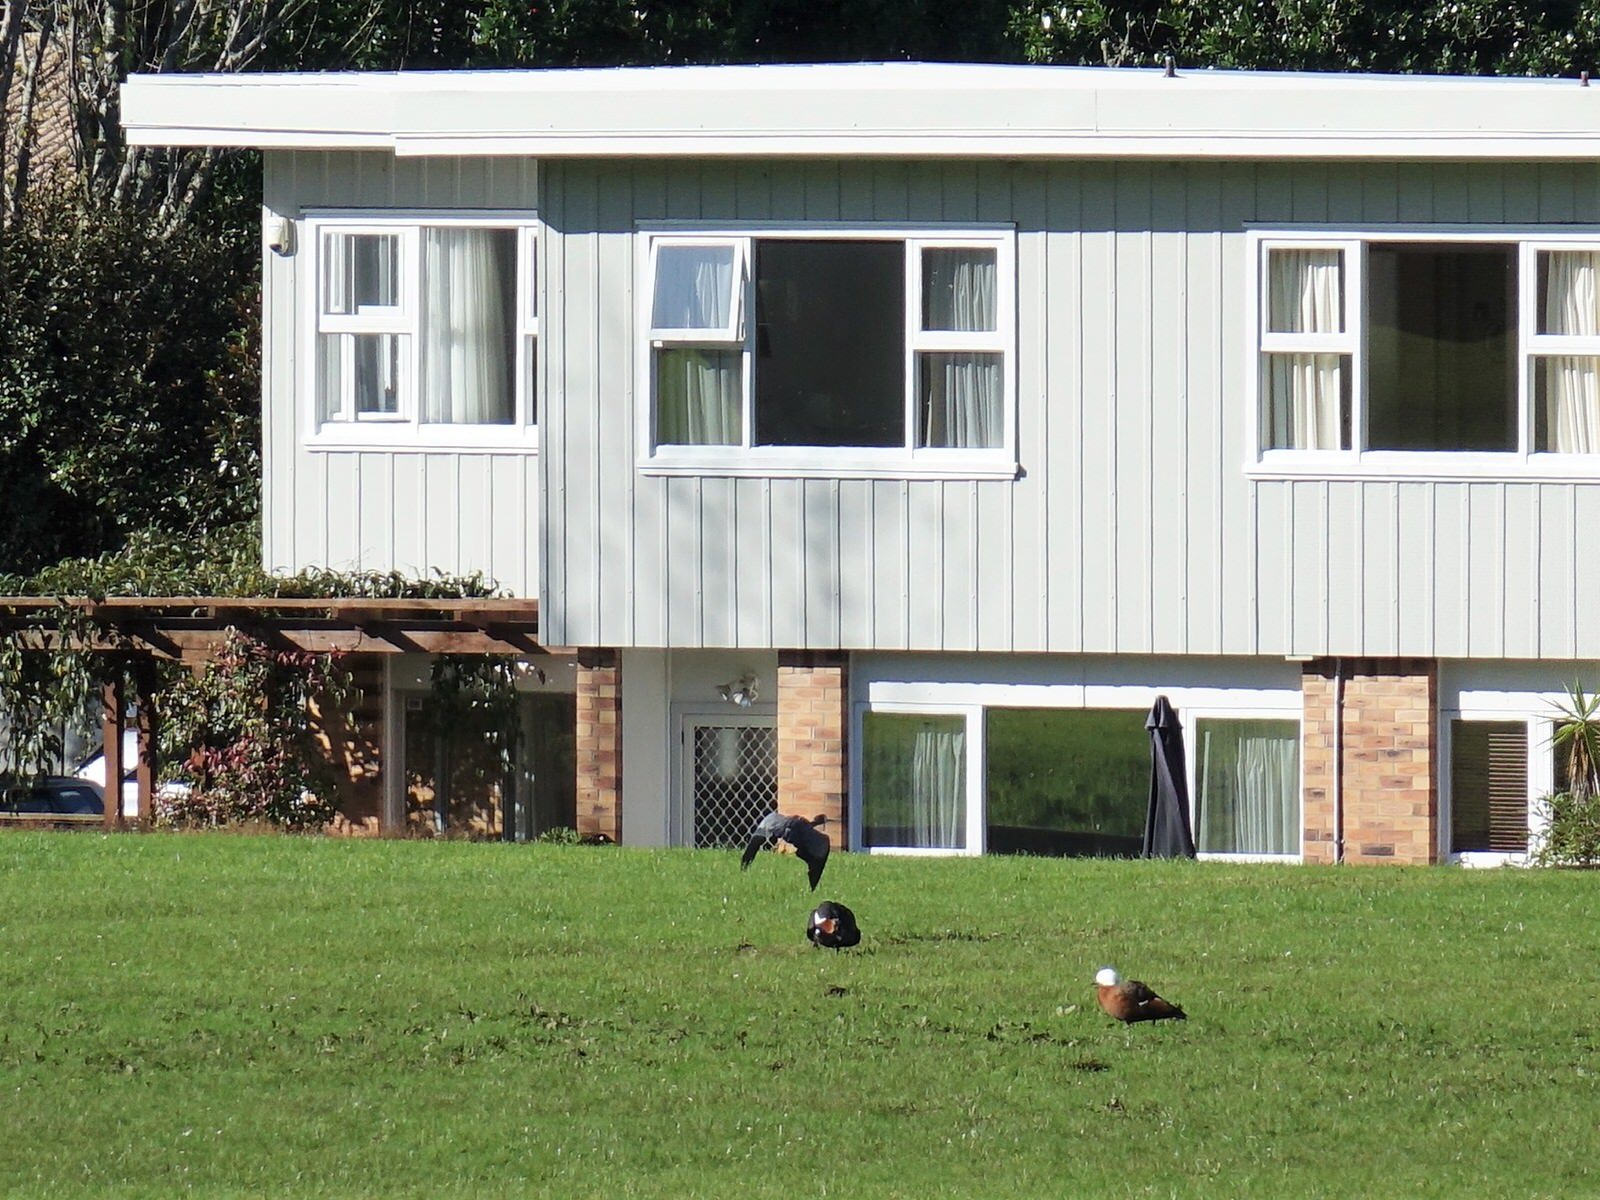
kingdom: Animalia
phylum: Chordata
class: Aves
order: Anseriformes
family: Anatidae
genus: Tadorna
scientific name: Tadorna variegata
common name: Paradise shelduck
